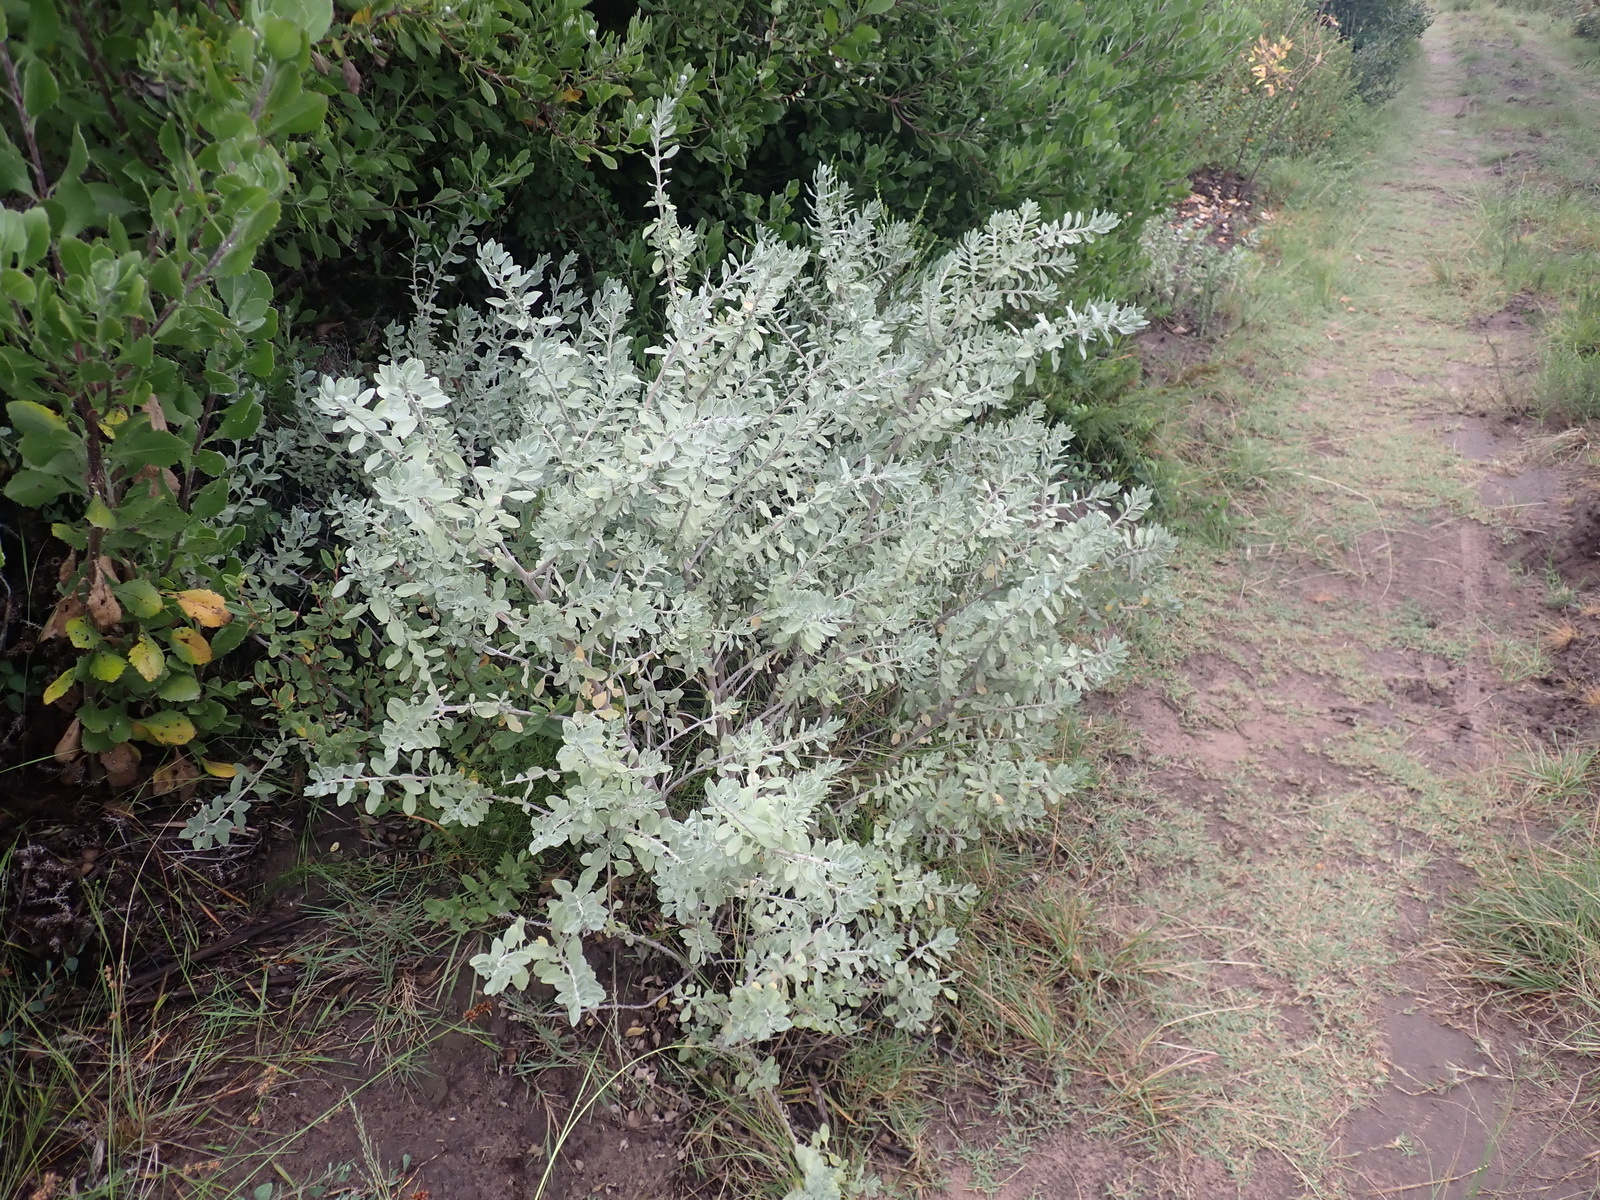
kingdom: Plantae
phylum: Tracheophyta
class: Magnoliopsida
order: Asterales
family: Asteraceae
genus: Helichrysum
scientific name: Helichrysum dasyanthum
